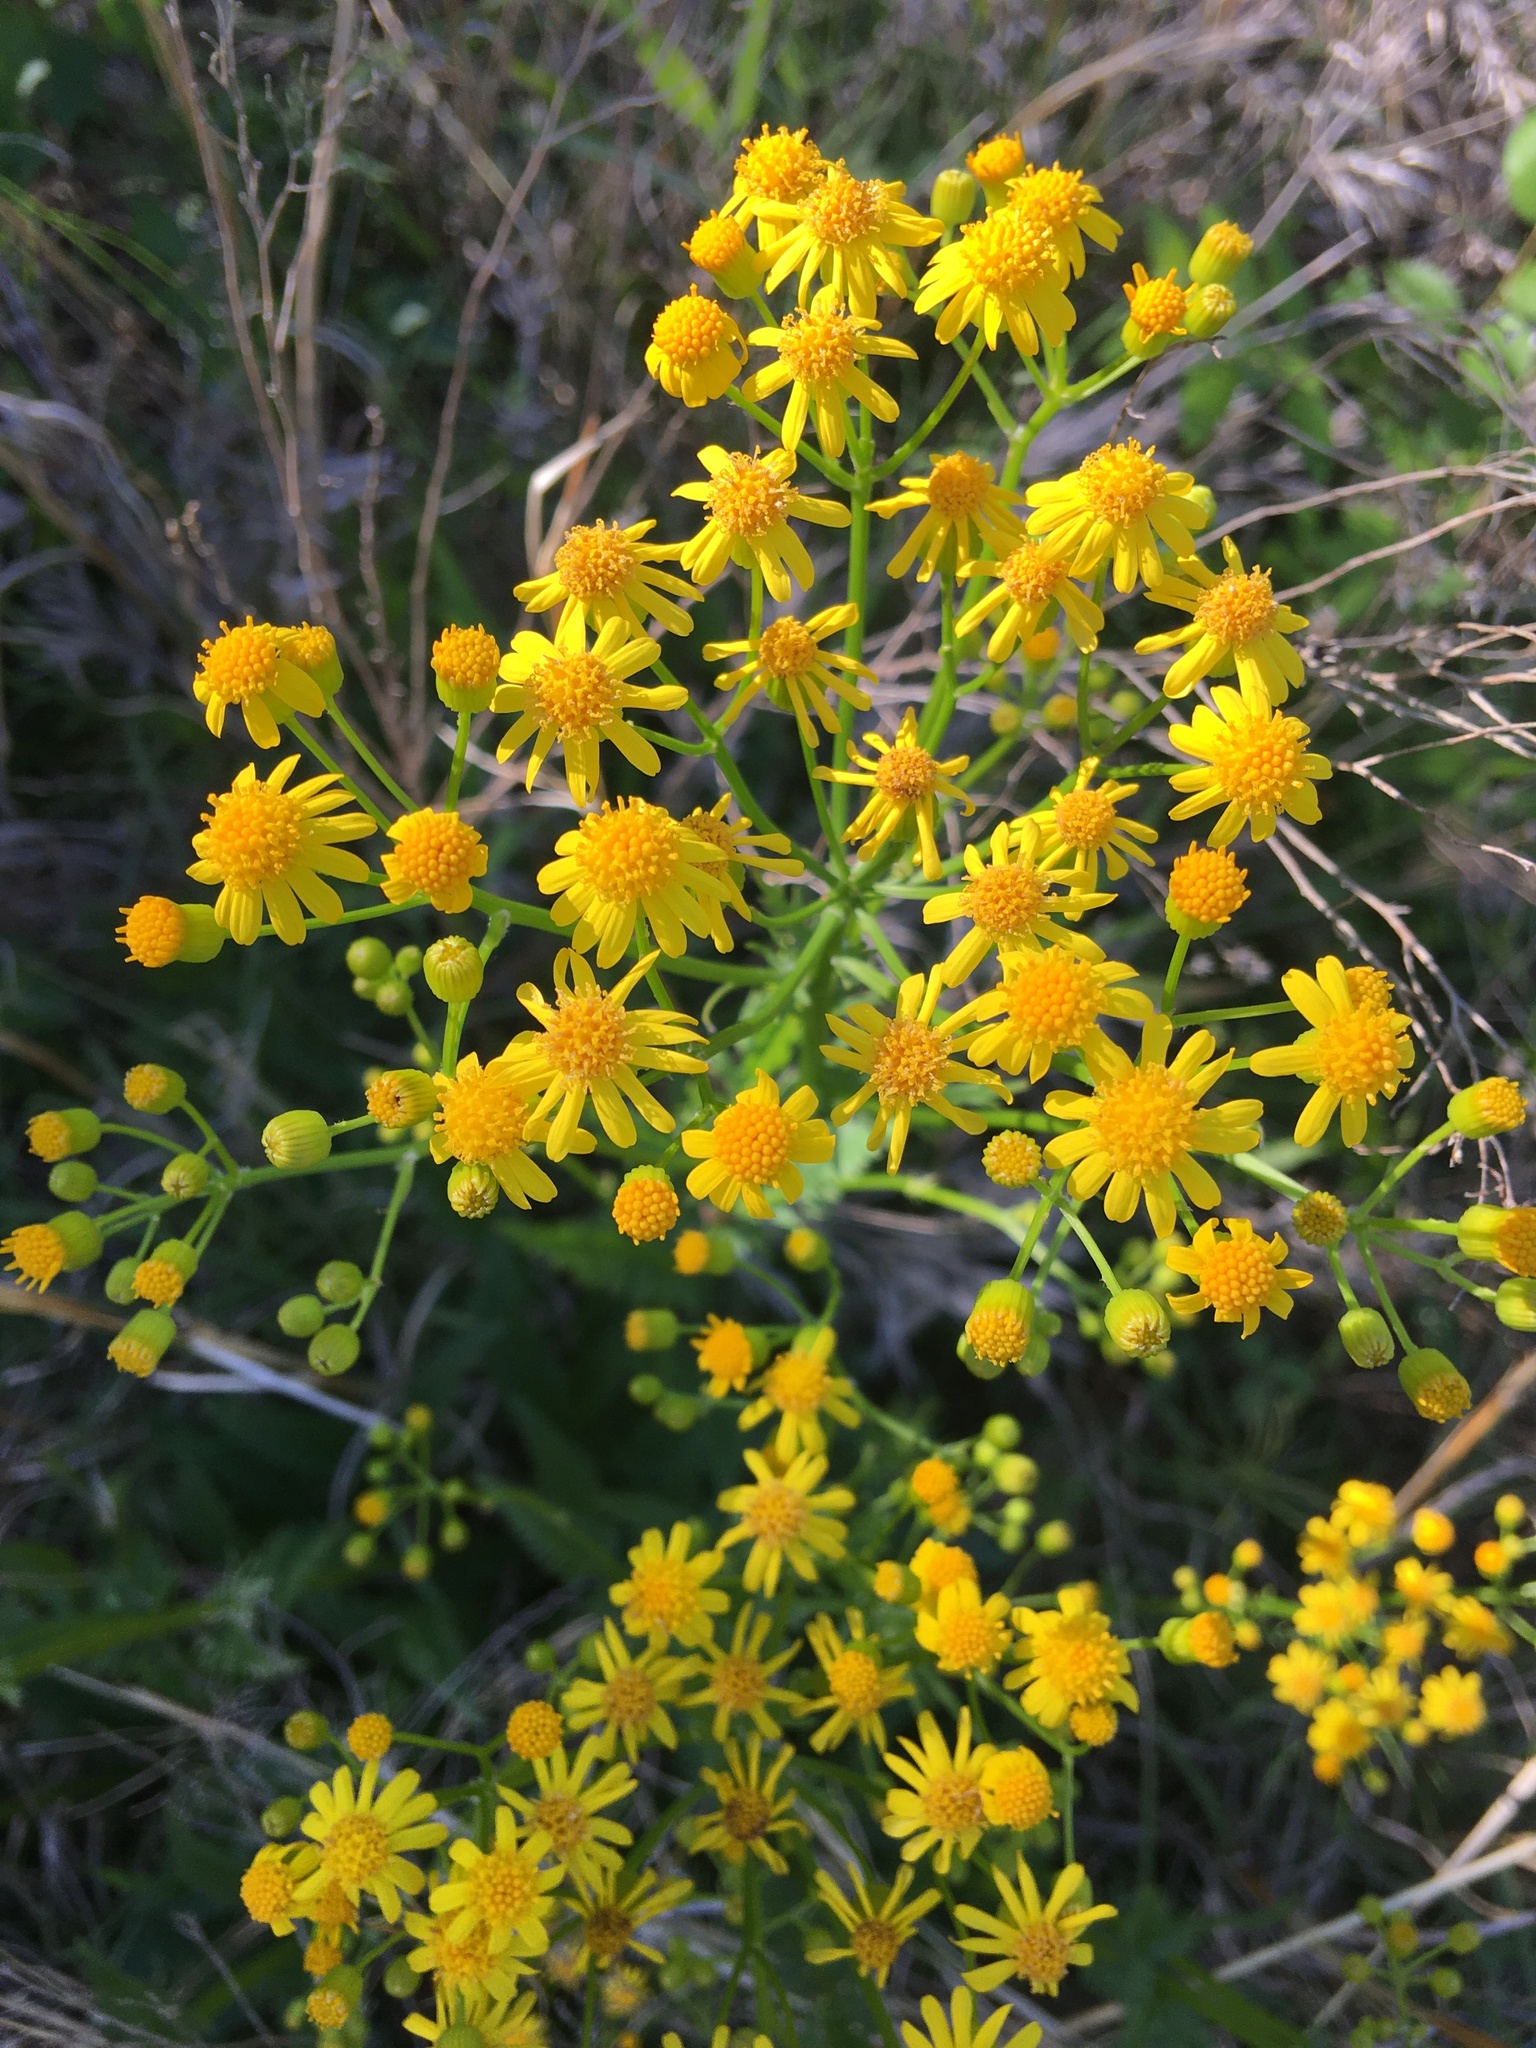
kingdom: Plantae
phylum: Tracheophyta
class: Magnoliopsida
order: Asterales
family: Asteraceae
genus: Packera
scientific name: Packera anonyma
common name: Small ragwort
